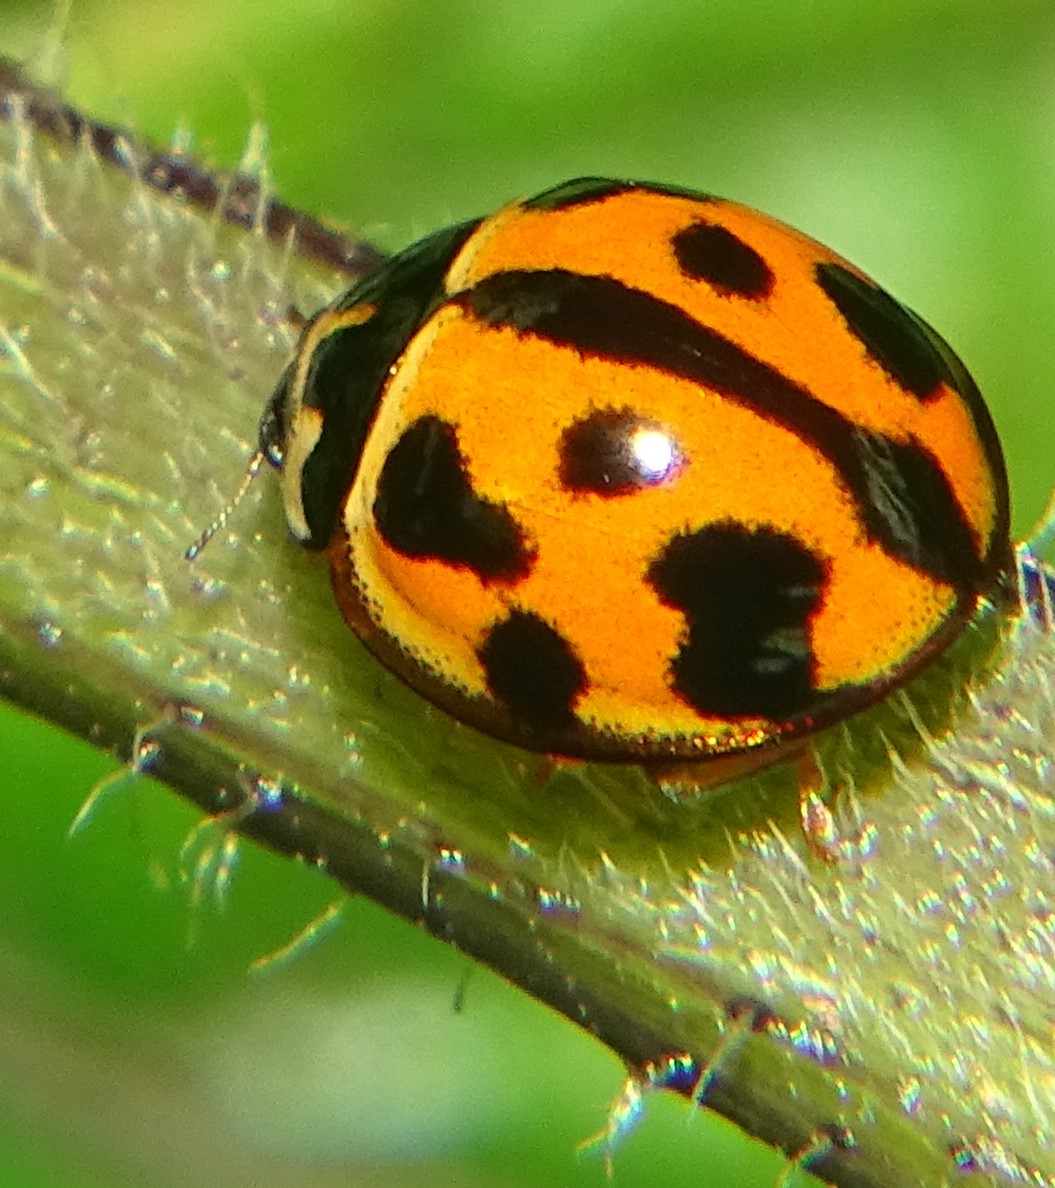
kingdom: Animalia
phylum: Arthropoda
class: Insecta
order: Coleoptera
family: Coccinellidae
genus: Coelophora
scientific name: Coelophora inaequalis
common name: Common australian lady beetle
